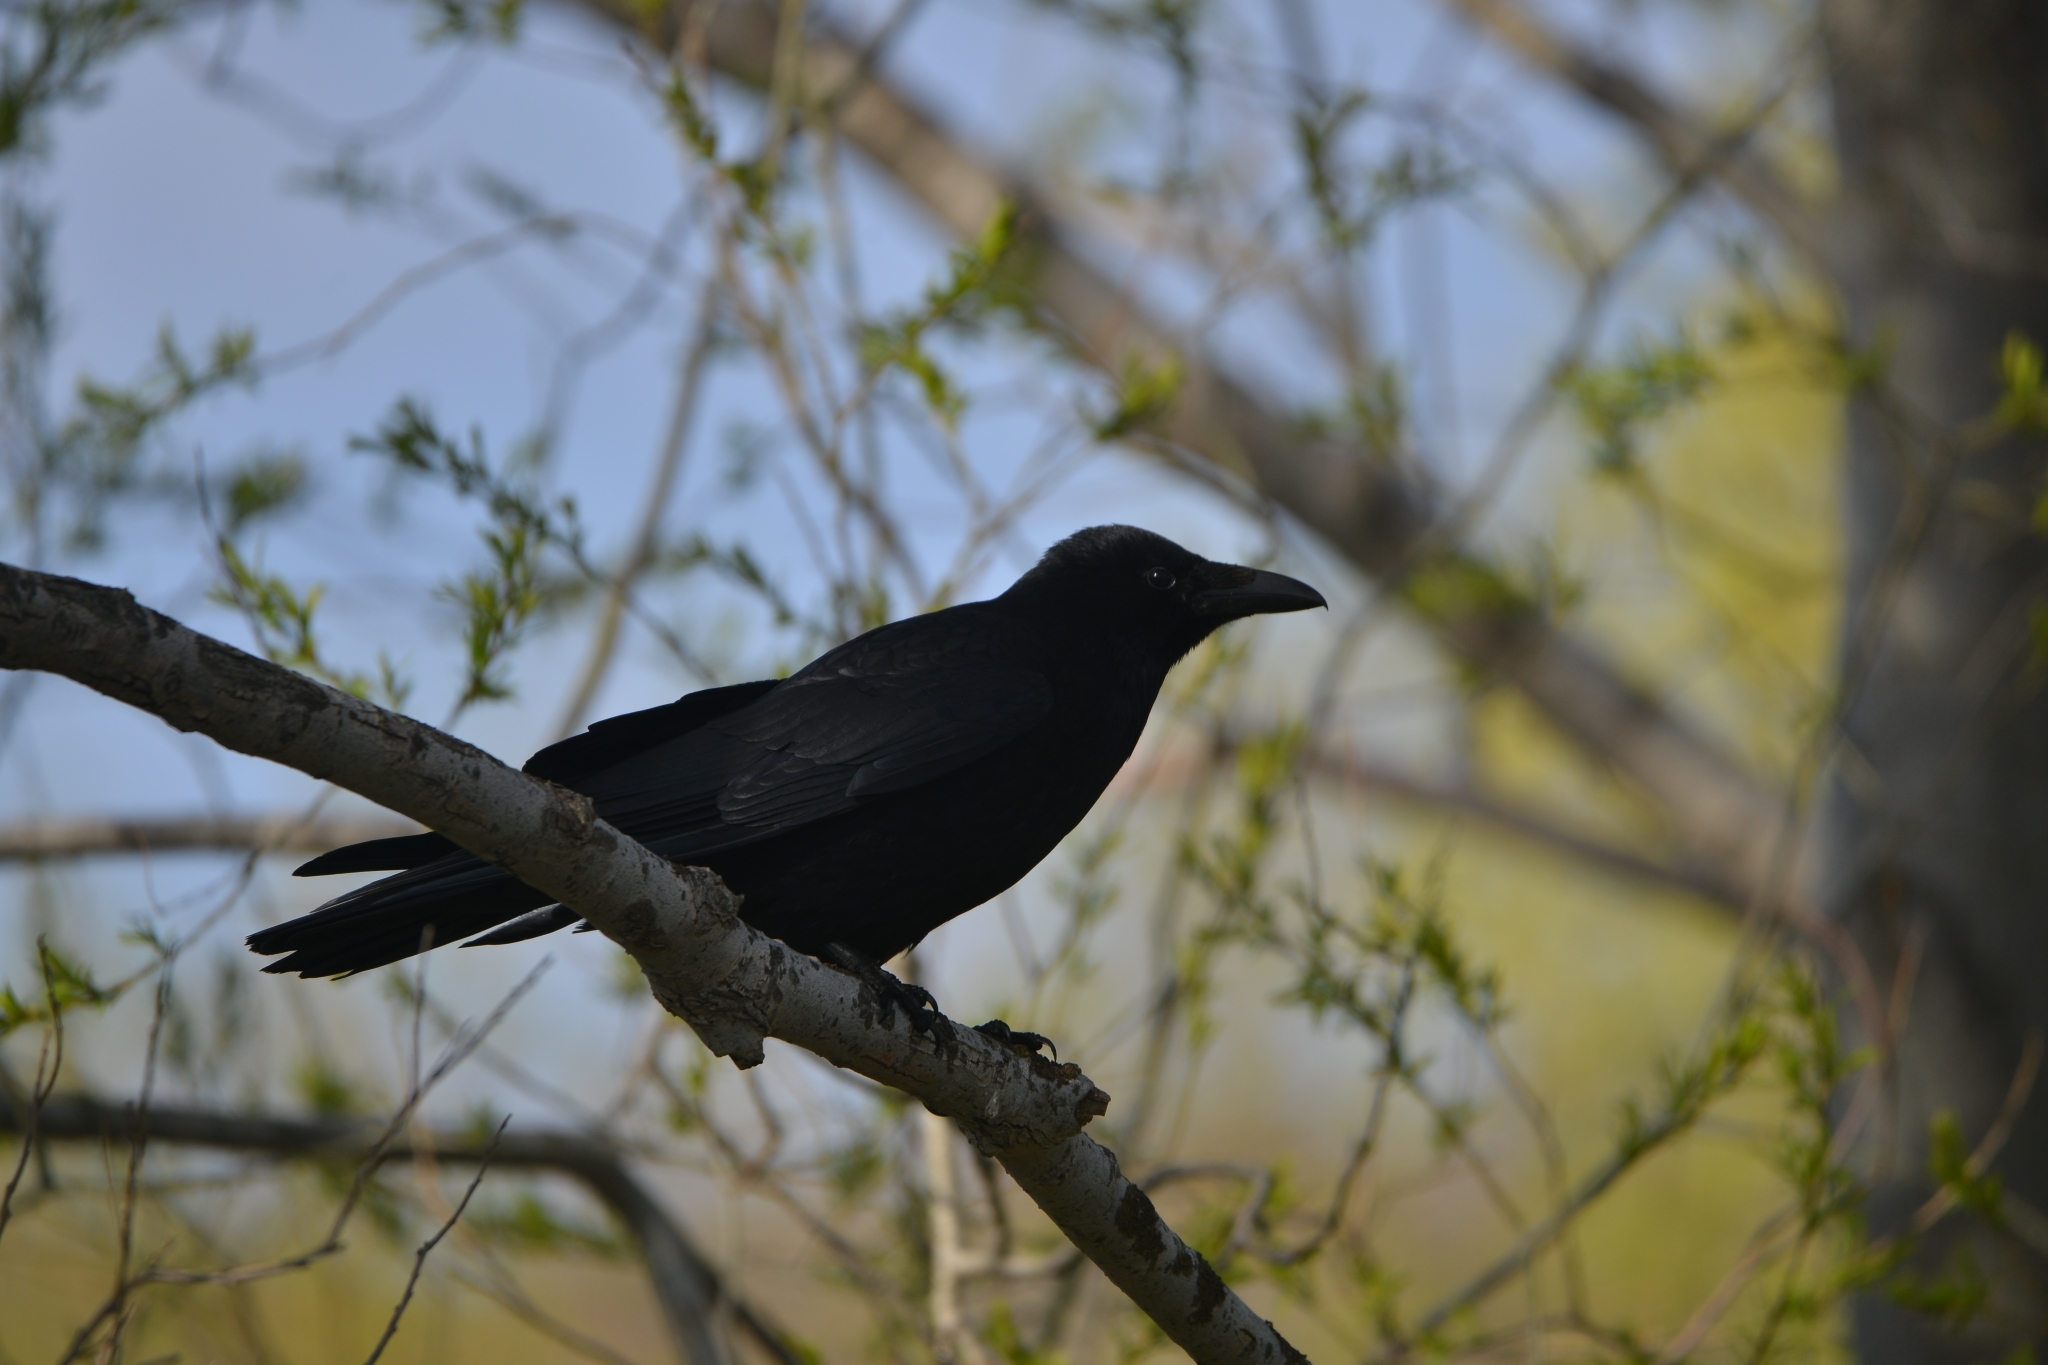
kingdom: Animalia
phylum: Chordata
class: Aves
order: Passeriformes
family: Corvidae
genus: Corvus
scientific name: Corvus corone
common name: Carrion crow
